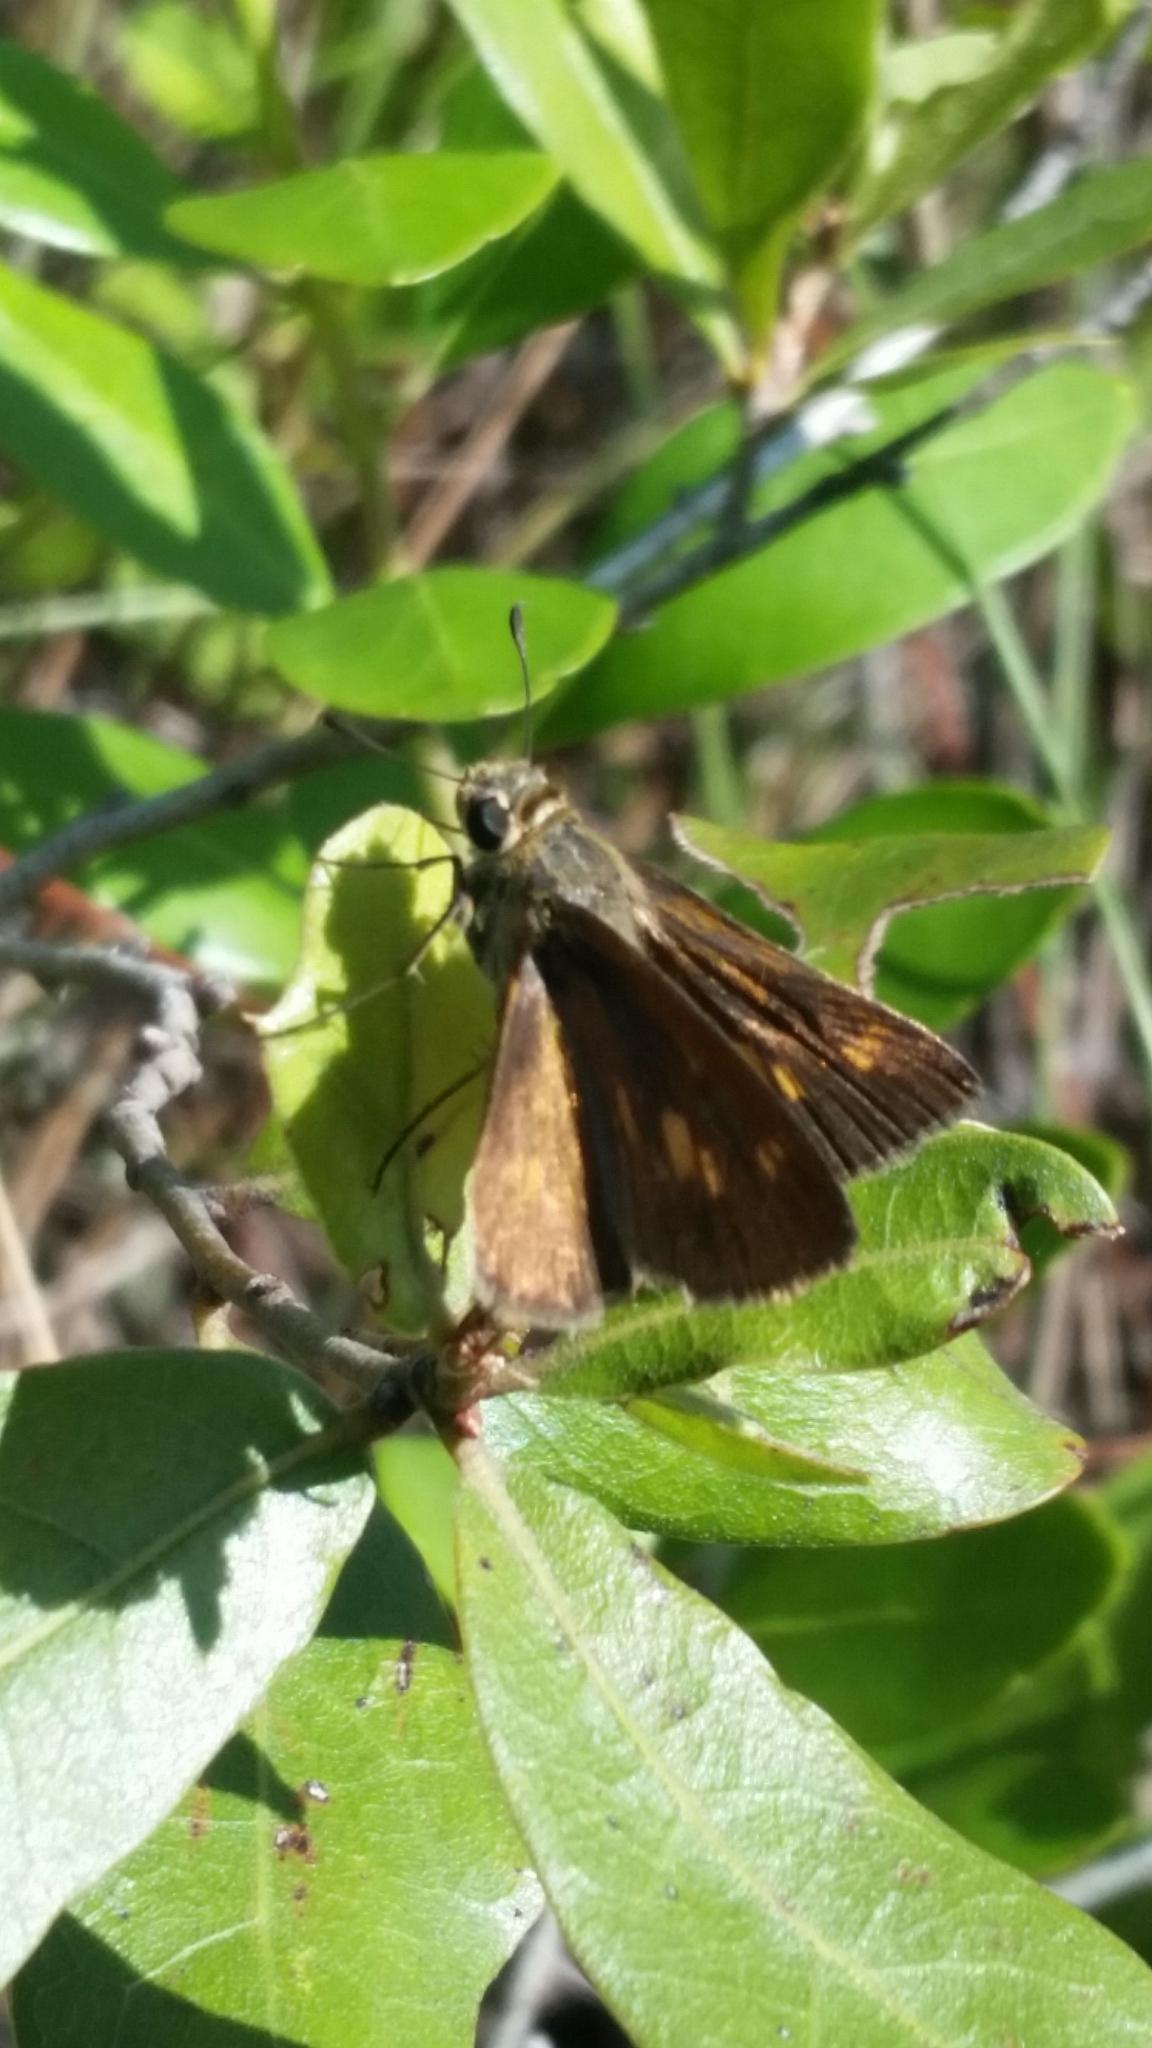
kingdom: Animalia
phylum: Arthropoda
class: Insecta
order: Lepidoptera
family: Hesperiidae
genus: Polites
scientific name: Polites otho
